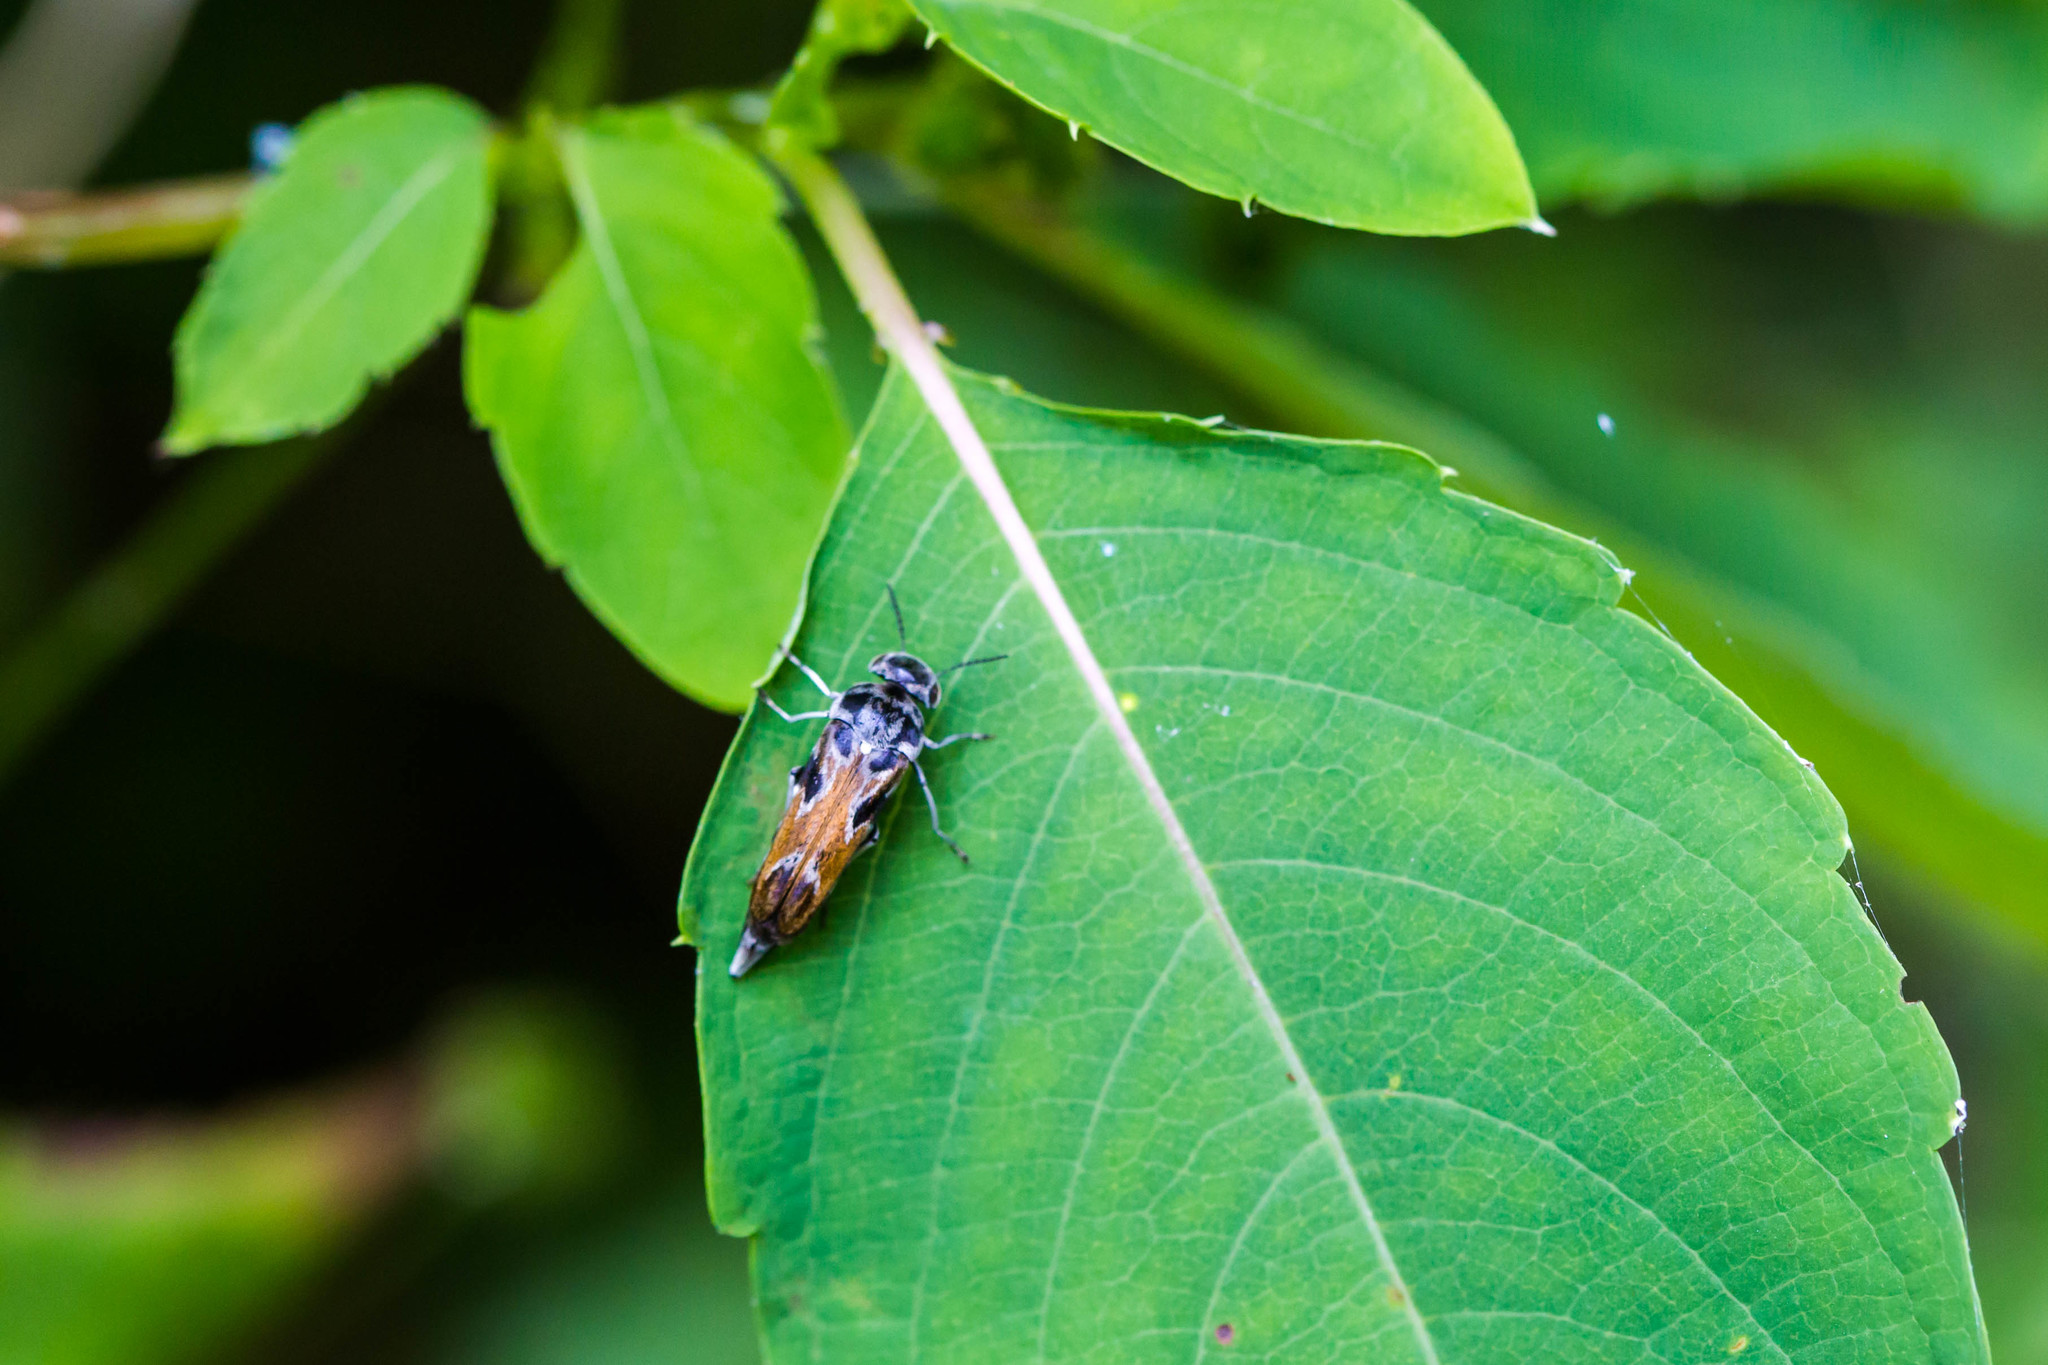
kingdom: Animalia
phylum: Arthropoda
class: Insecta
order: Coleoptera
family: Mordellidae
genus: Glipa
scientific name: Glipa hilaris
